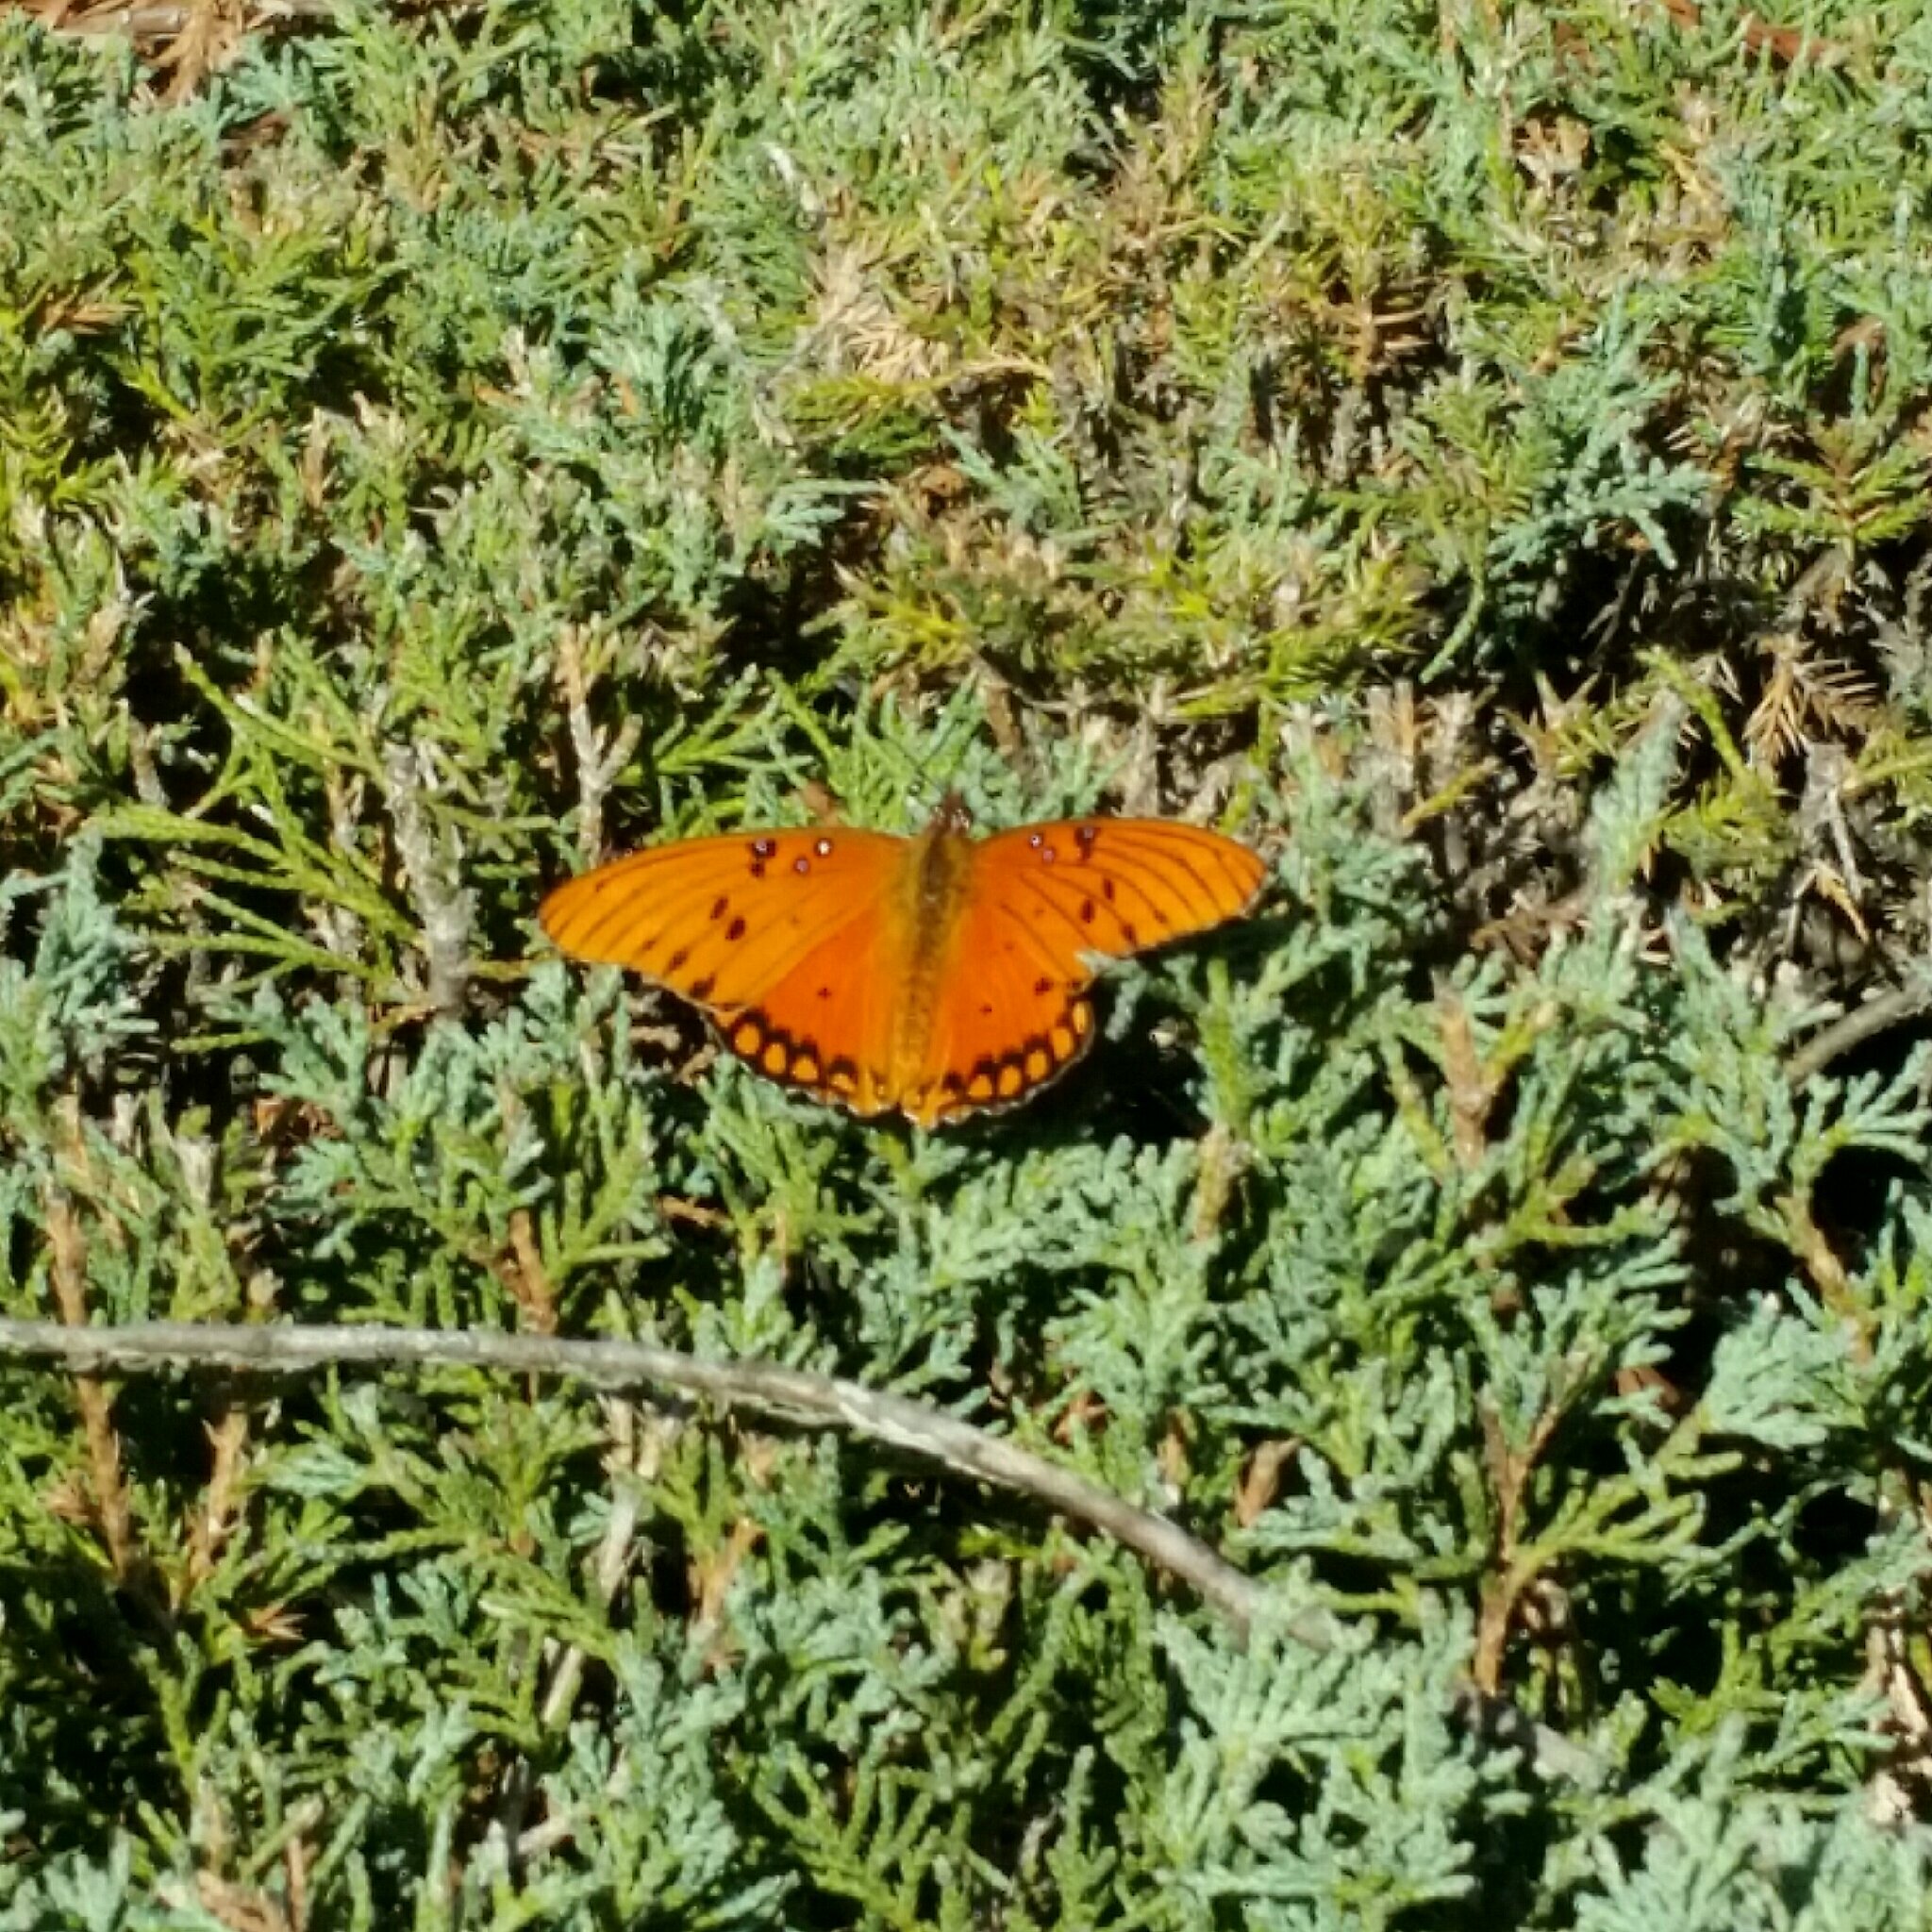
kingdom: Animalia
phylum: Arthropoda
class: Insecta
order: Lepidoptera
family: Nymphalidae
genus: Dione
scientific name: Dione vanillae
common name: Gulf fritillary
